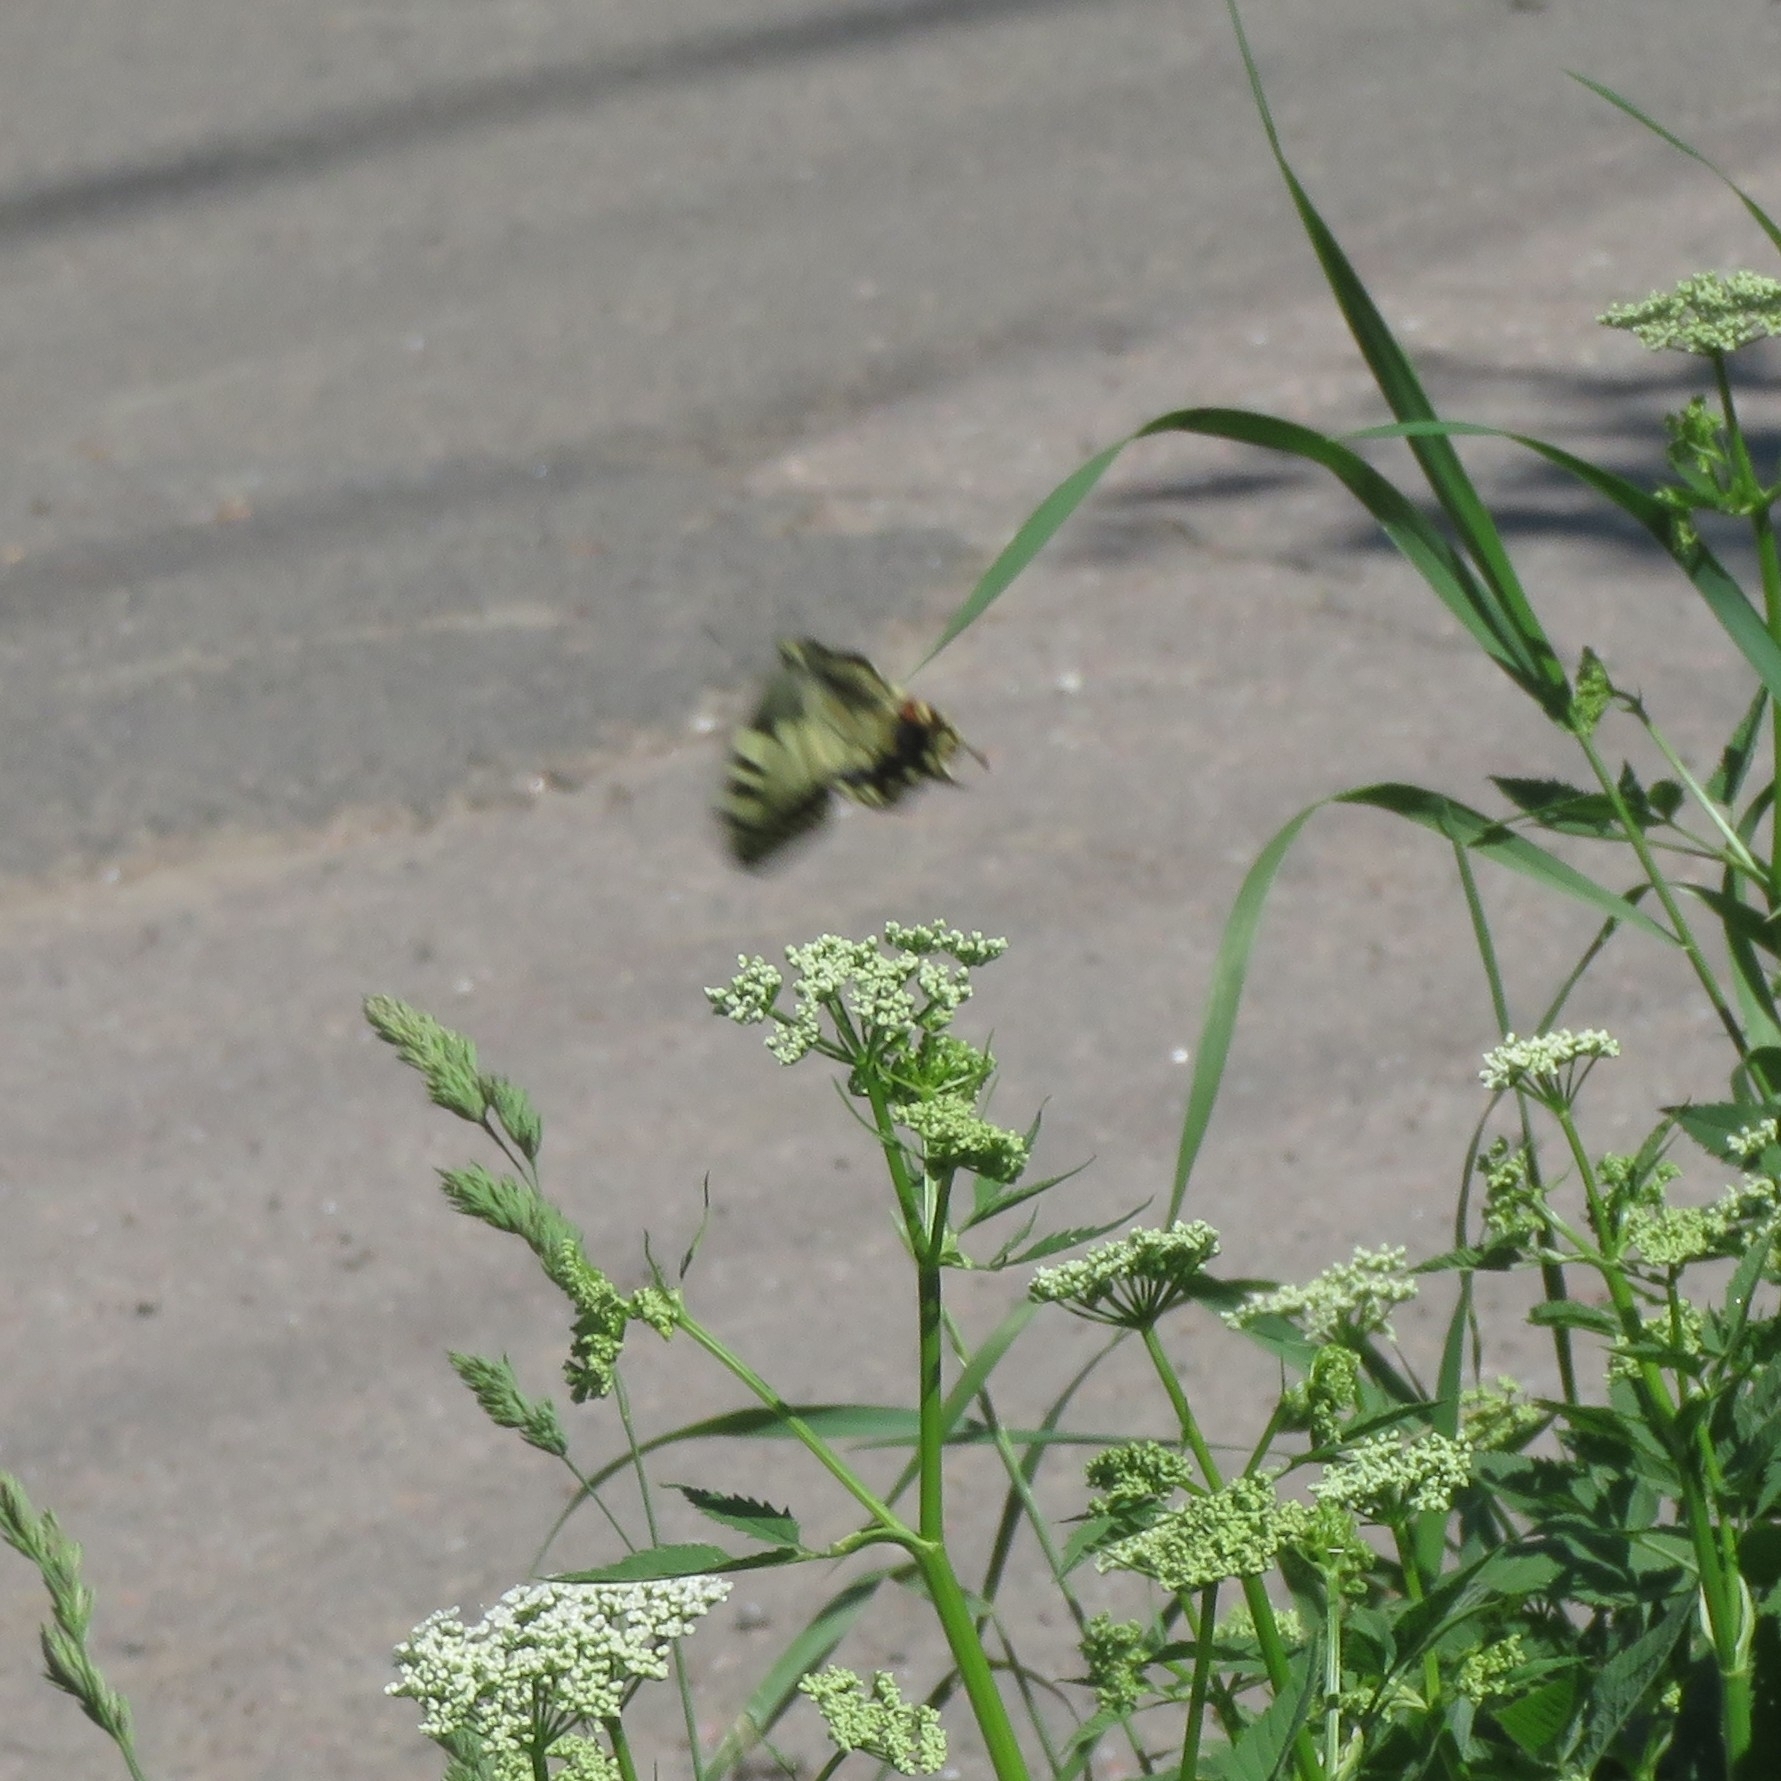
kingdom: Animalia
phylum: Arthropoda
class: Insecta
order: Lepidoptera
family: Papilionidae
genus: Papilio
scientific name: Papilio machaon
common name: Swallowtail
